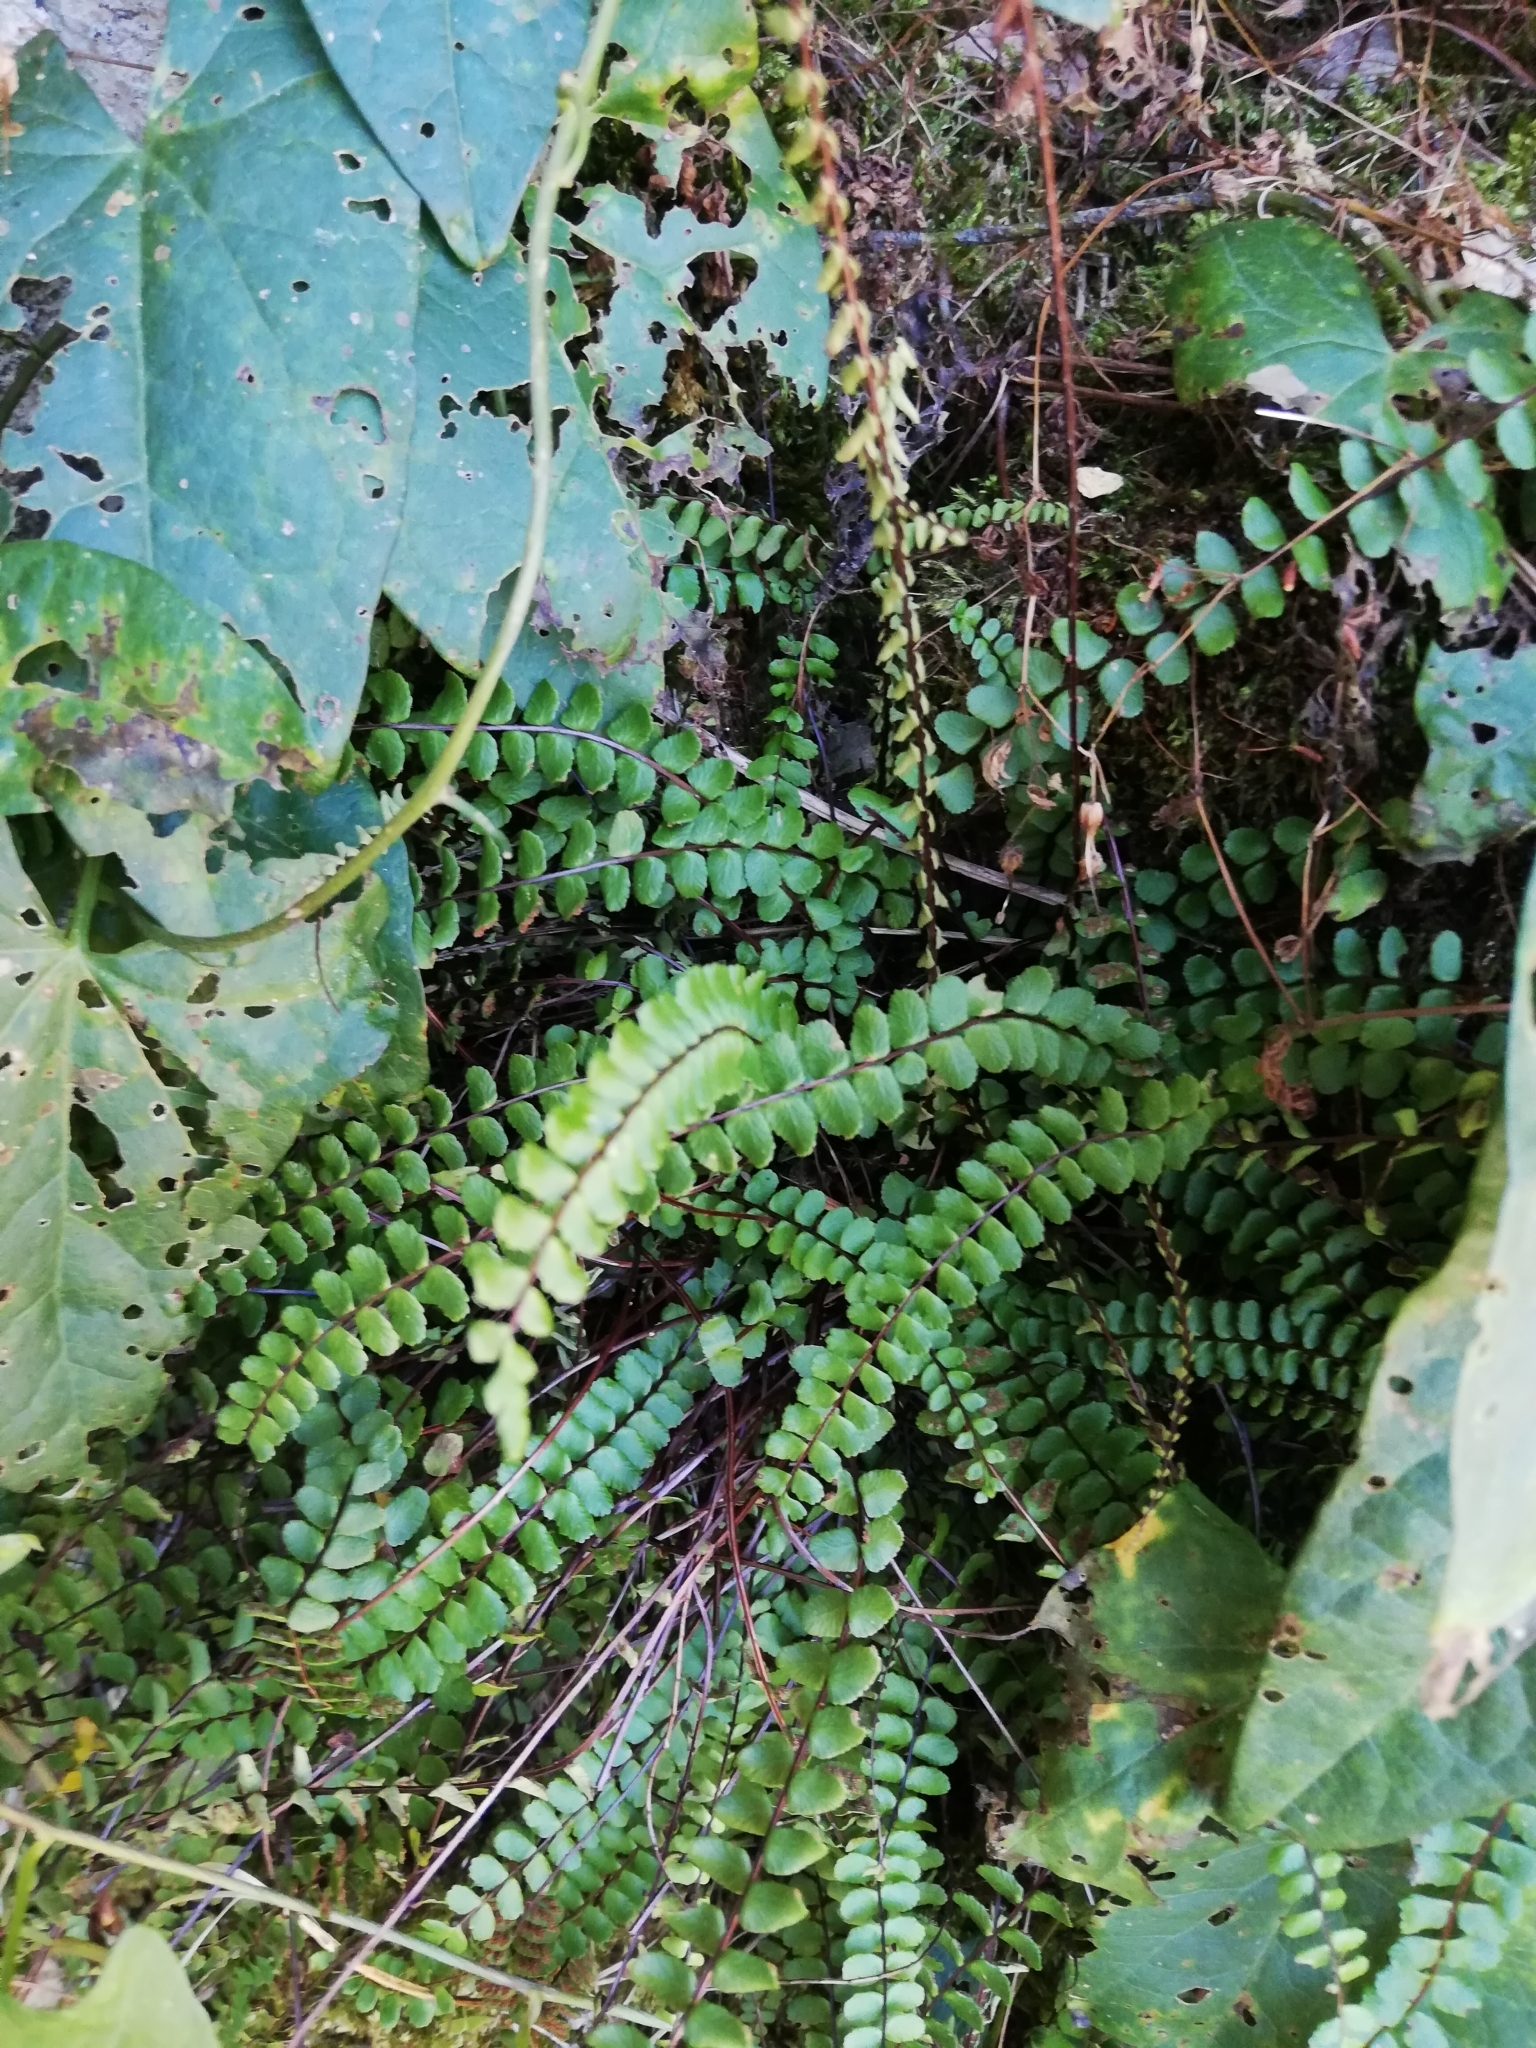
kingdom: Plantae
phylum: Tracheophyta
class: Polypodiopsida
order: Polypodiales
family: Aspleniaceae
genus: Asplenium
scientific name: Asplenium trichomanes
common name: Maidenhair spleenwort
